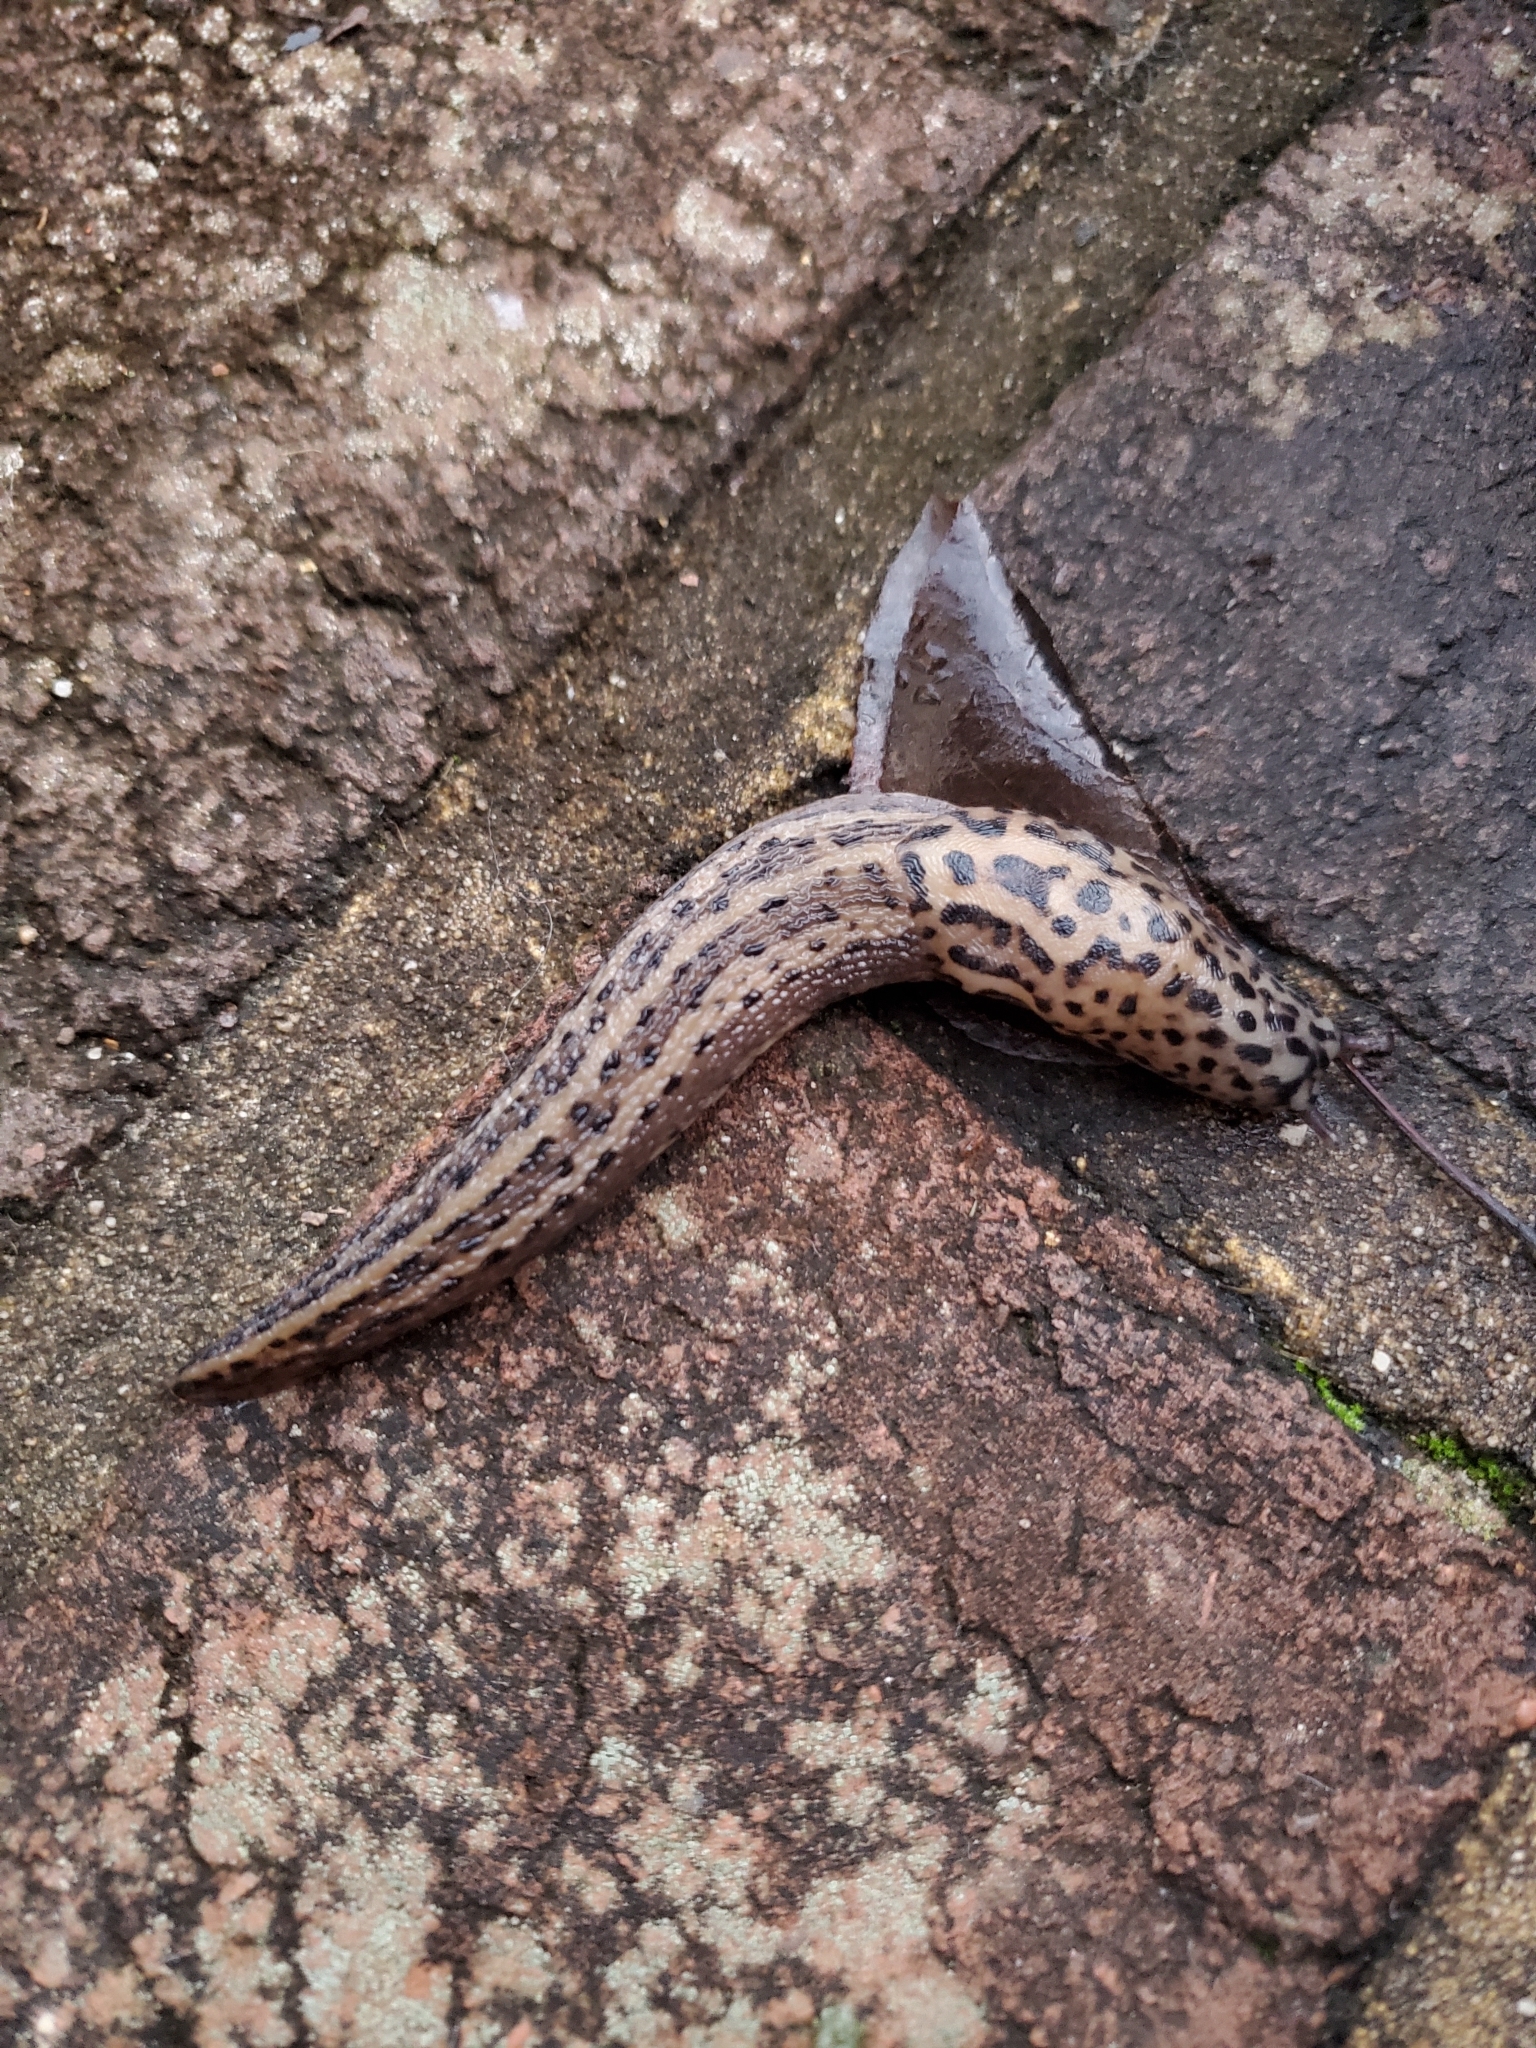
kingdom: Animalia
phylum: Mollusca
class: Gastropoda
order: Stylommatophora
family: Limacidae
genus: Limax
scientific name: Limax maximus
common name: Great grey slug
